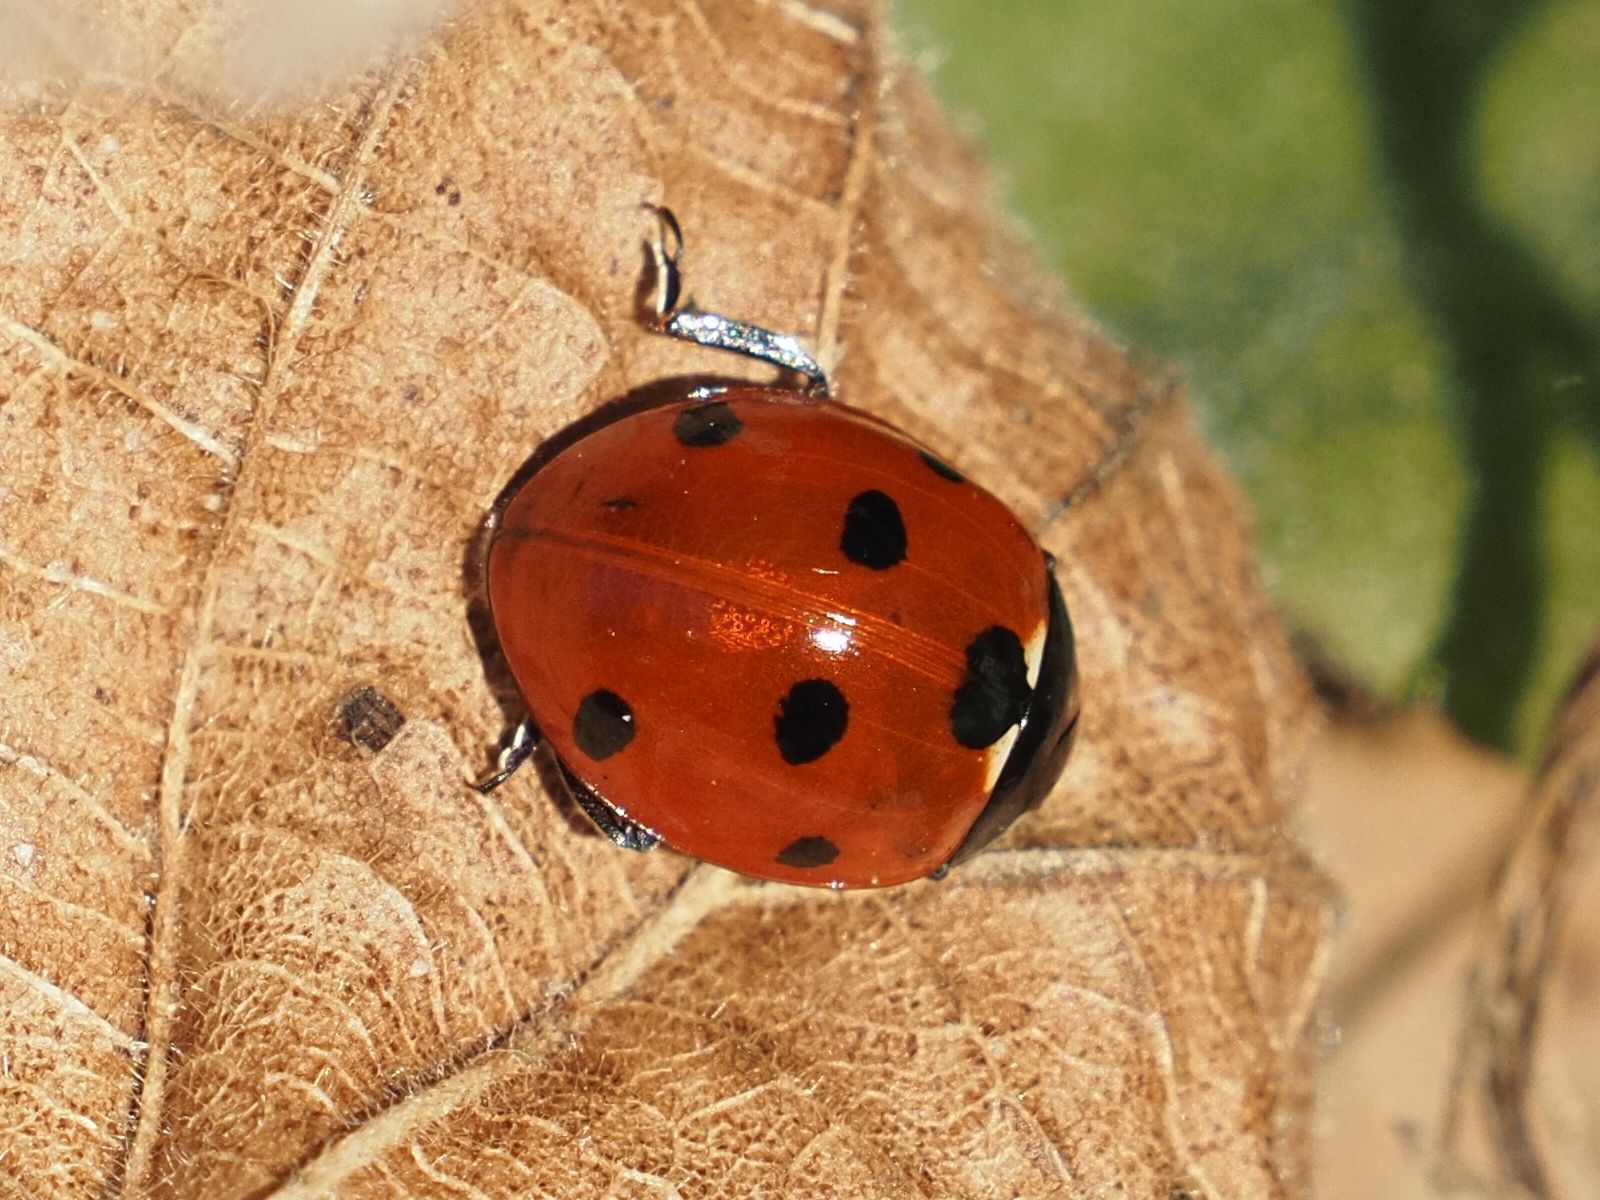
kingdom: Animalia
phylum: Arthropoda
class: Insecta
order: Coleoptera
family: Coccinellidae
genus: Coccinella
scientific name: Coccinella septempunctata
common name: Sevenspotted lady beetle
